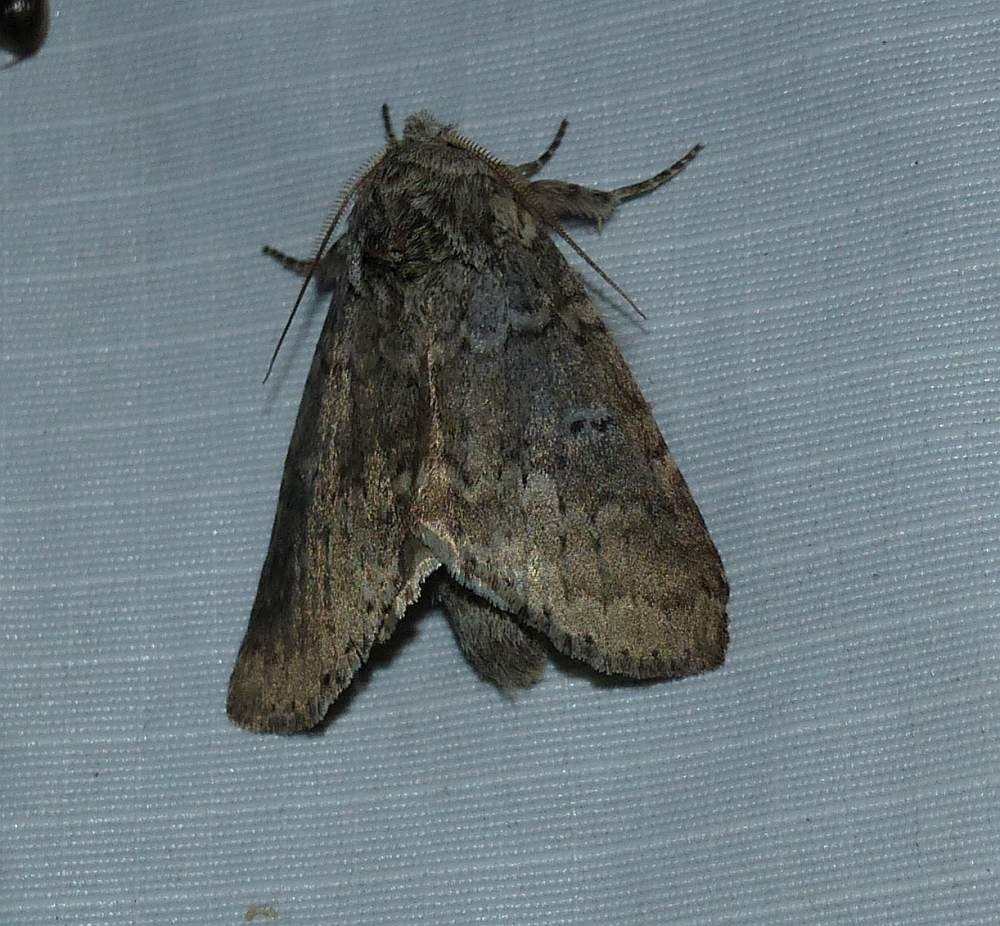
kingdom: Animalia
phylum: Arthropoda
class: Insecta
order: Lepidoptera
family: Notodontidae
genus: Lochmaeus
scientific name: Lochmaeus manteo
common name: Variable oakleaf caterpillar moth
